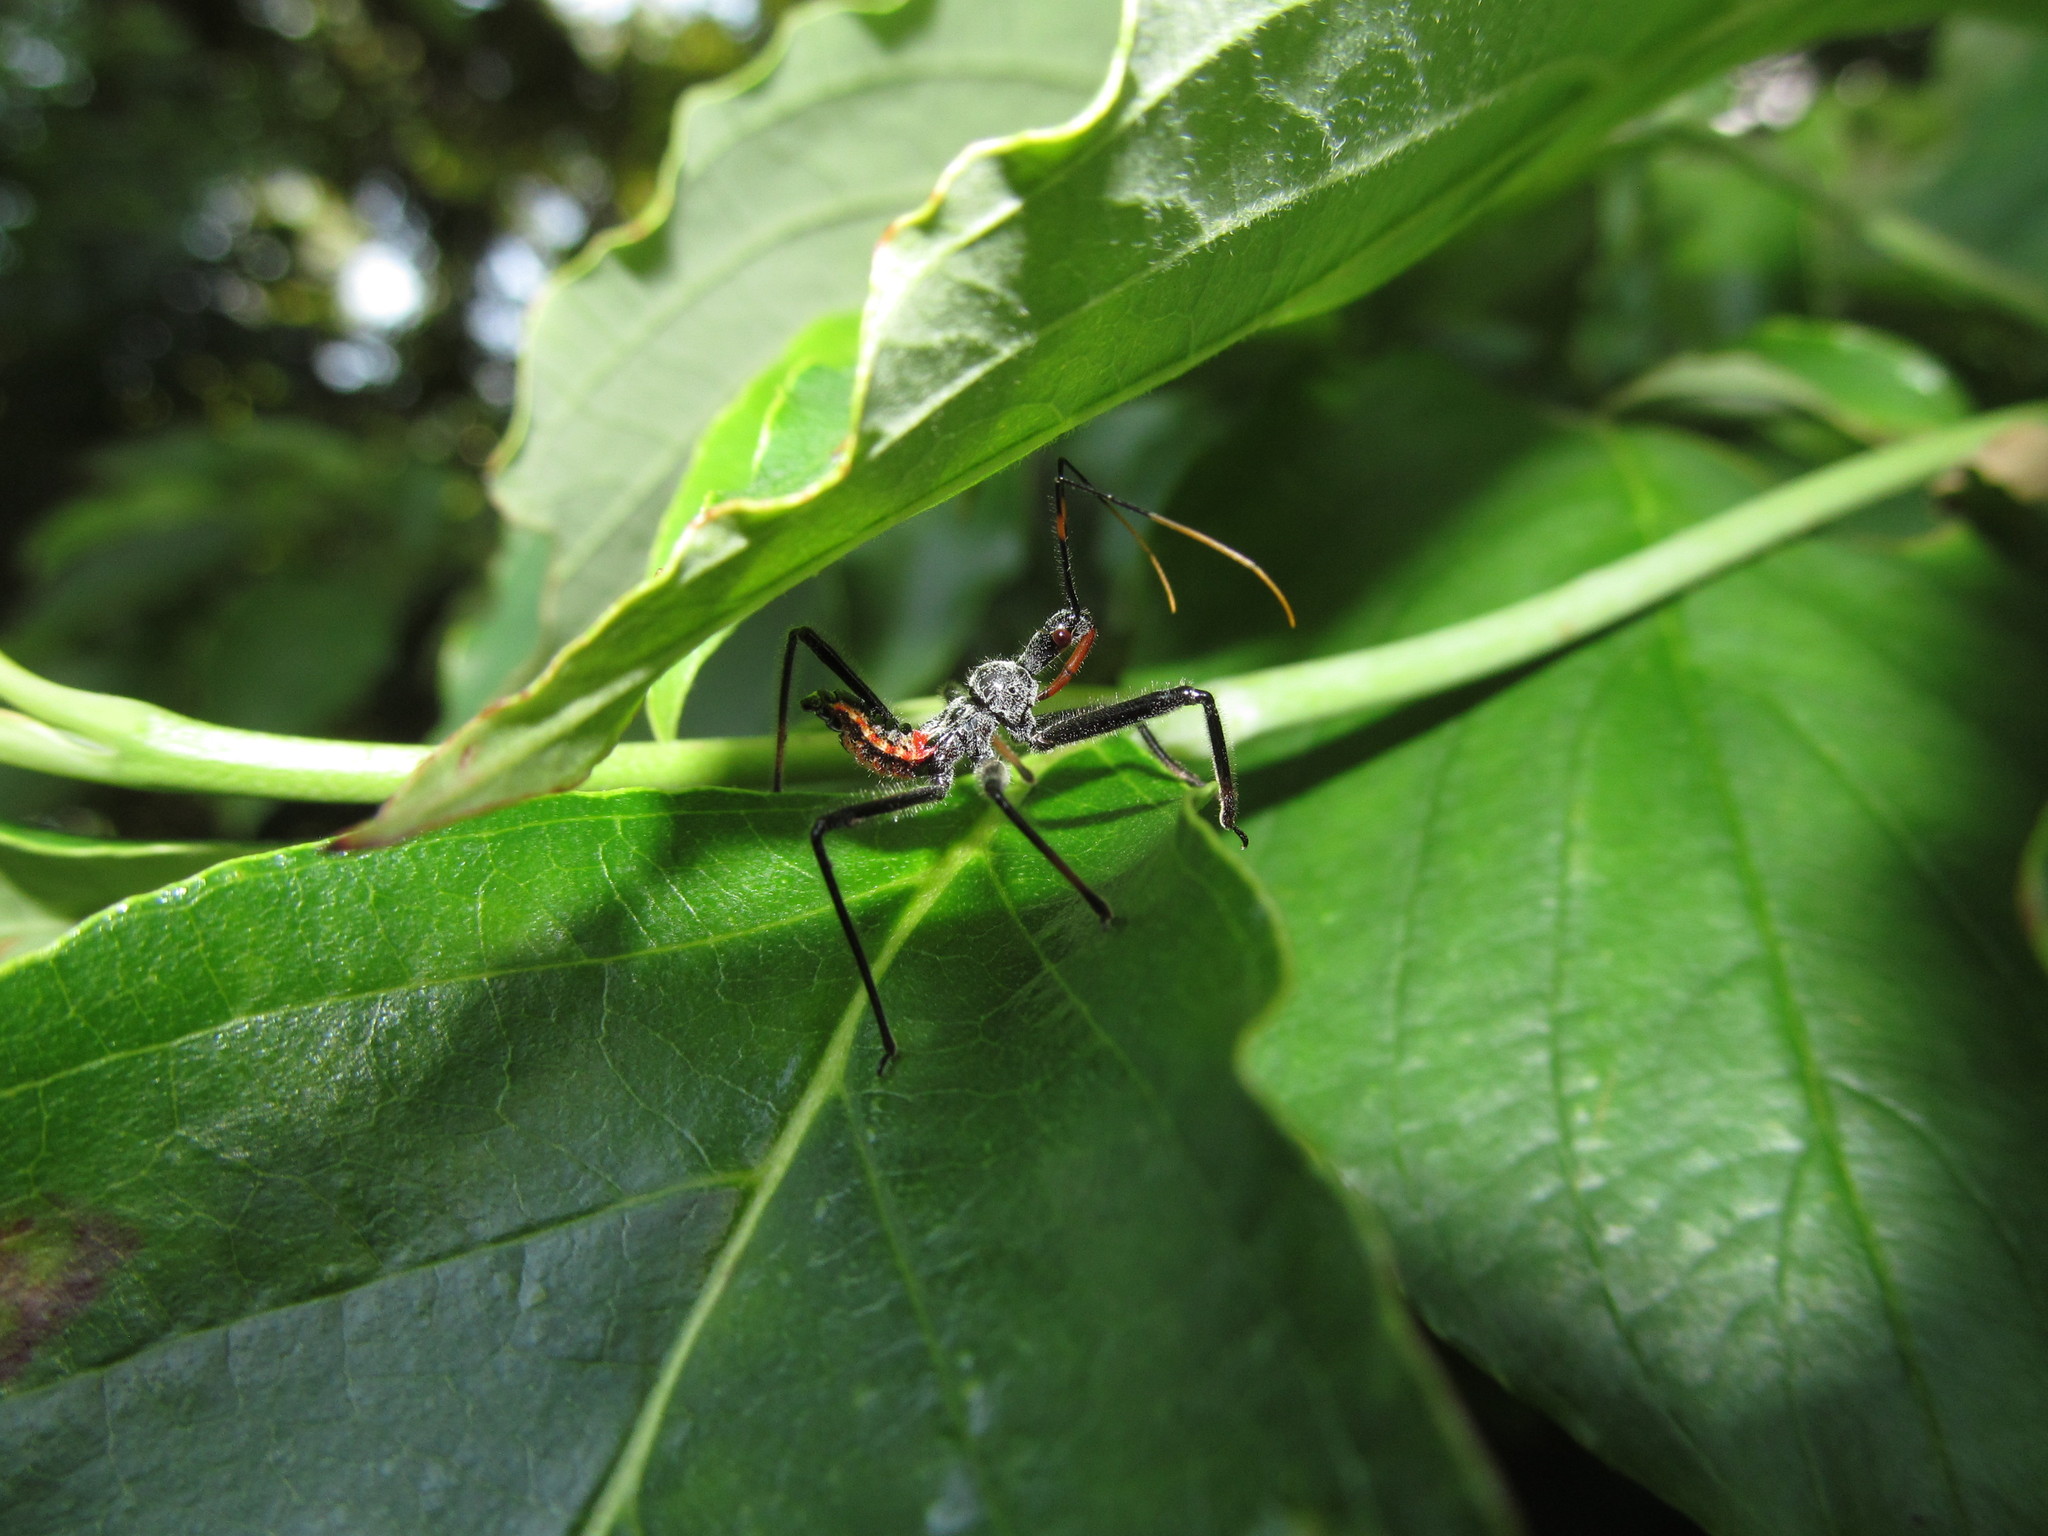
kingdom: Animalia
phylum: Arthropoda
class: Insecta
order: Hemiptera
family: Reduviidae
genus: Arilus
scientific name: Arilus cristatus
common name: North american wheel bug
